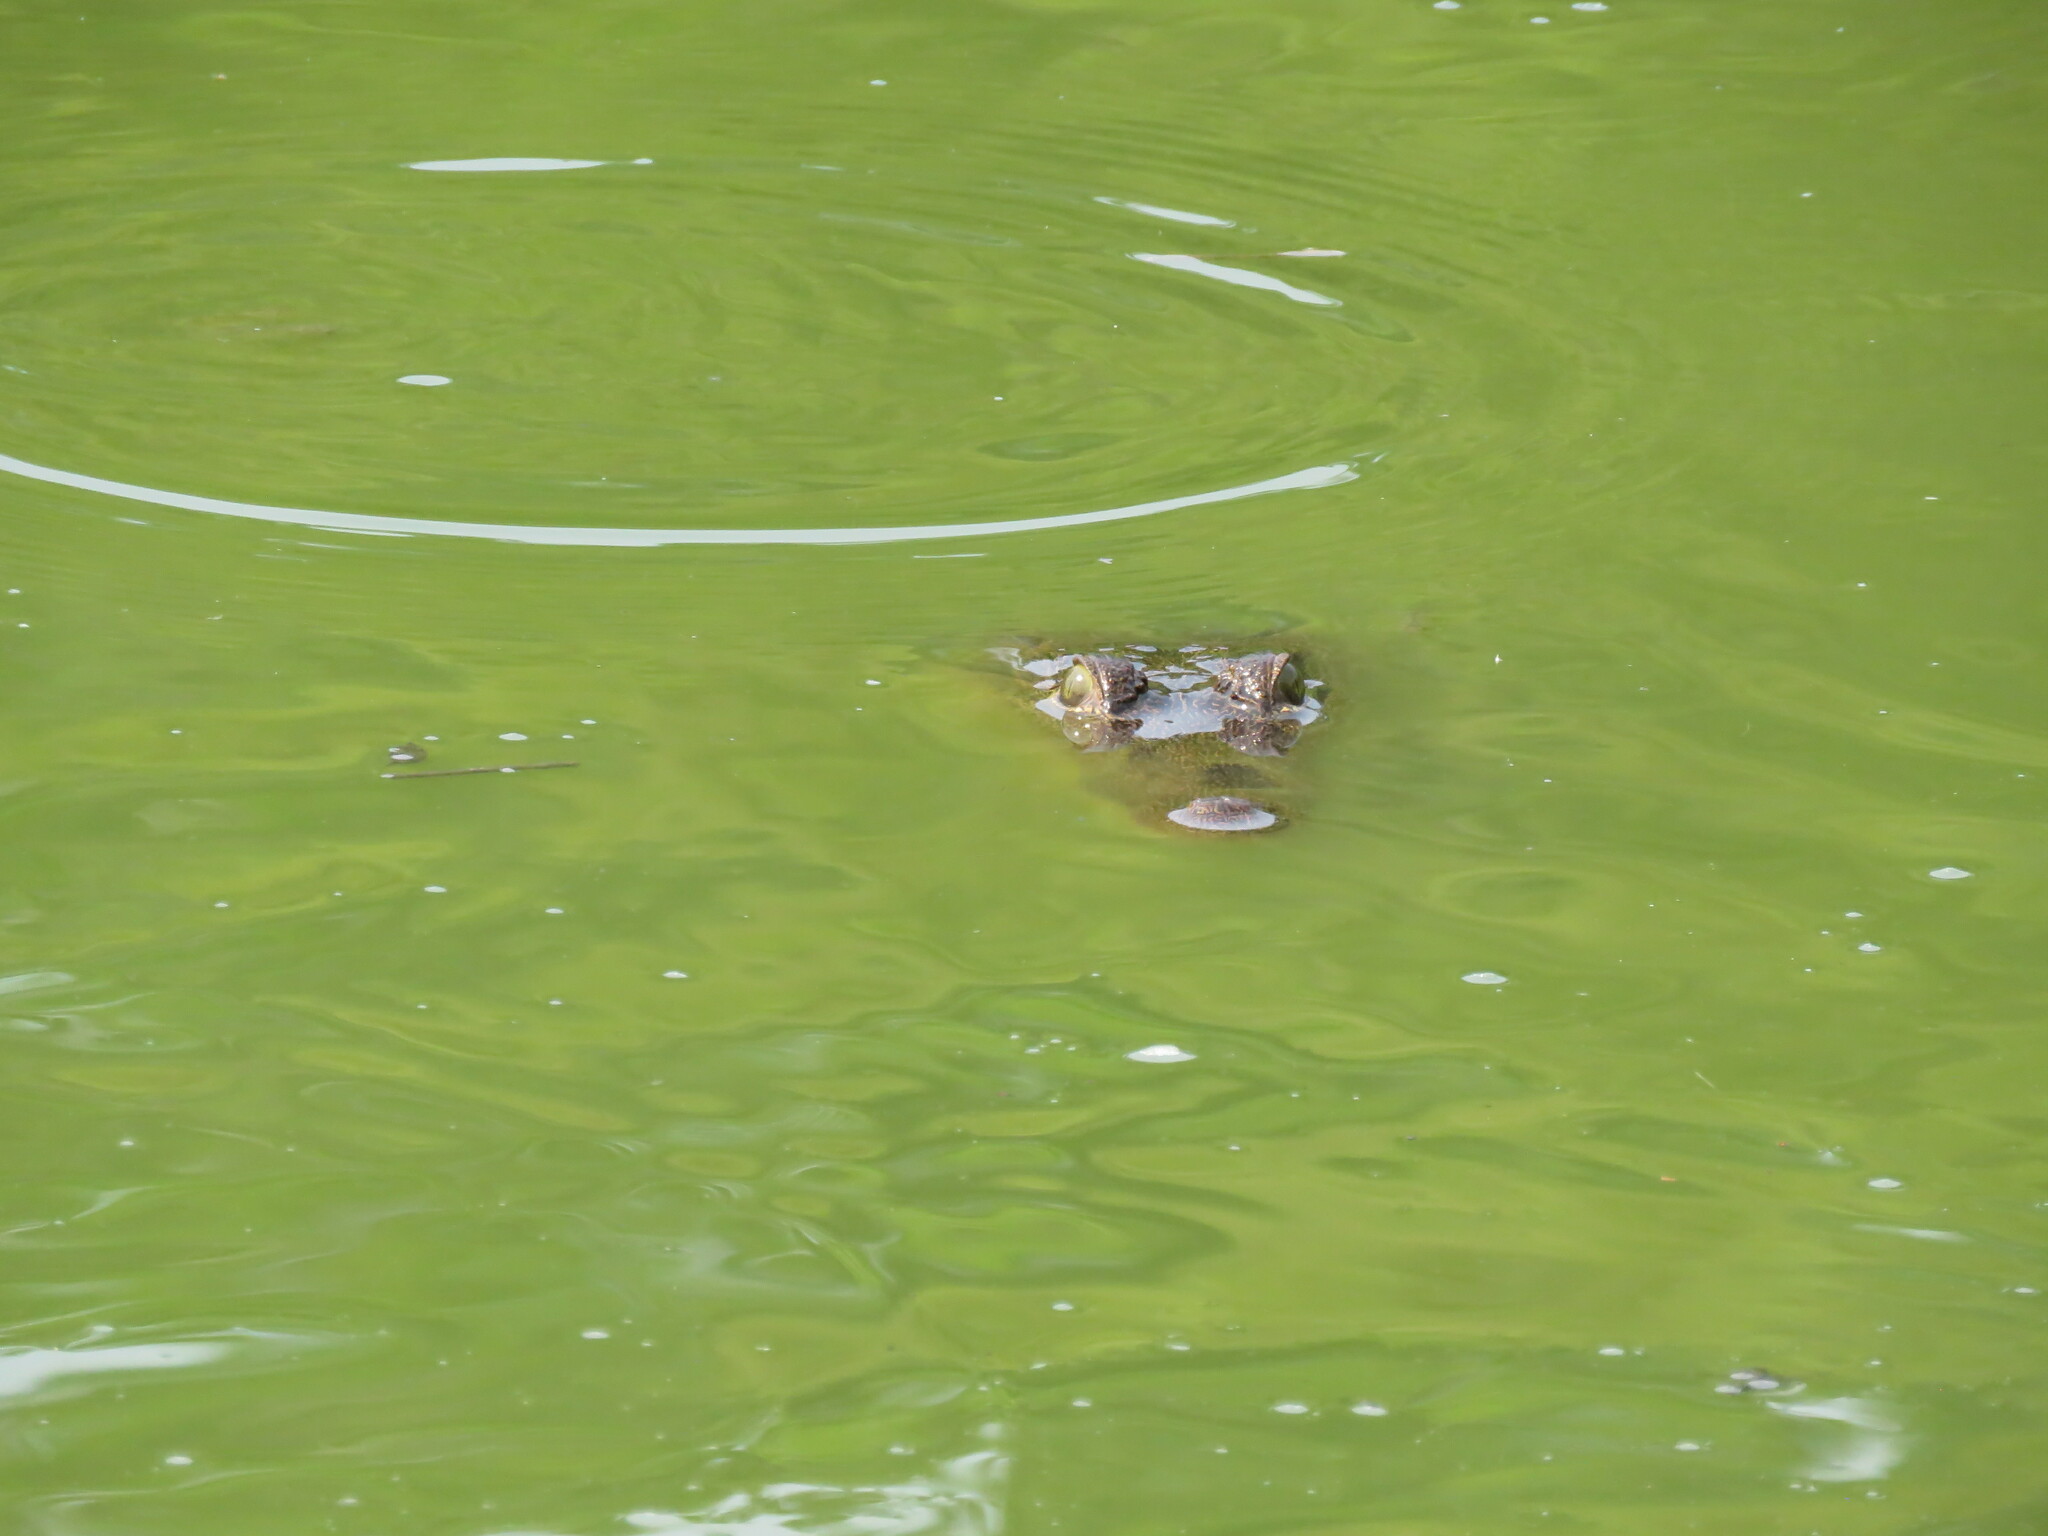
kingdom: Animalia
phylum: Chordata
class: Crocodylia
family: Crocodylidae
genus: Crocodylus
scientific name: Crocodylus moreletii
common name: Morelet's crocodile
